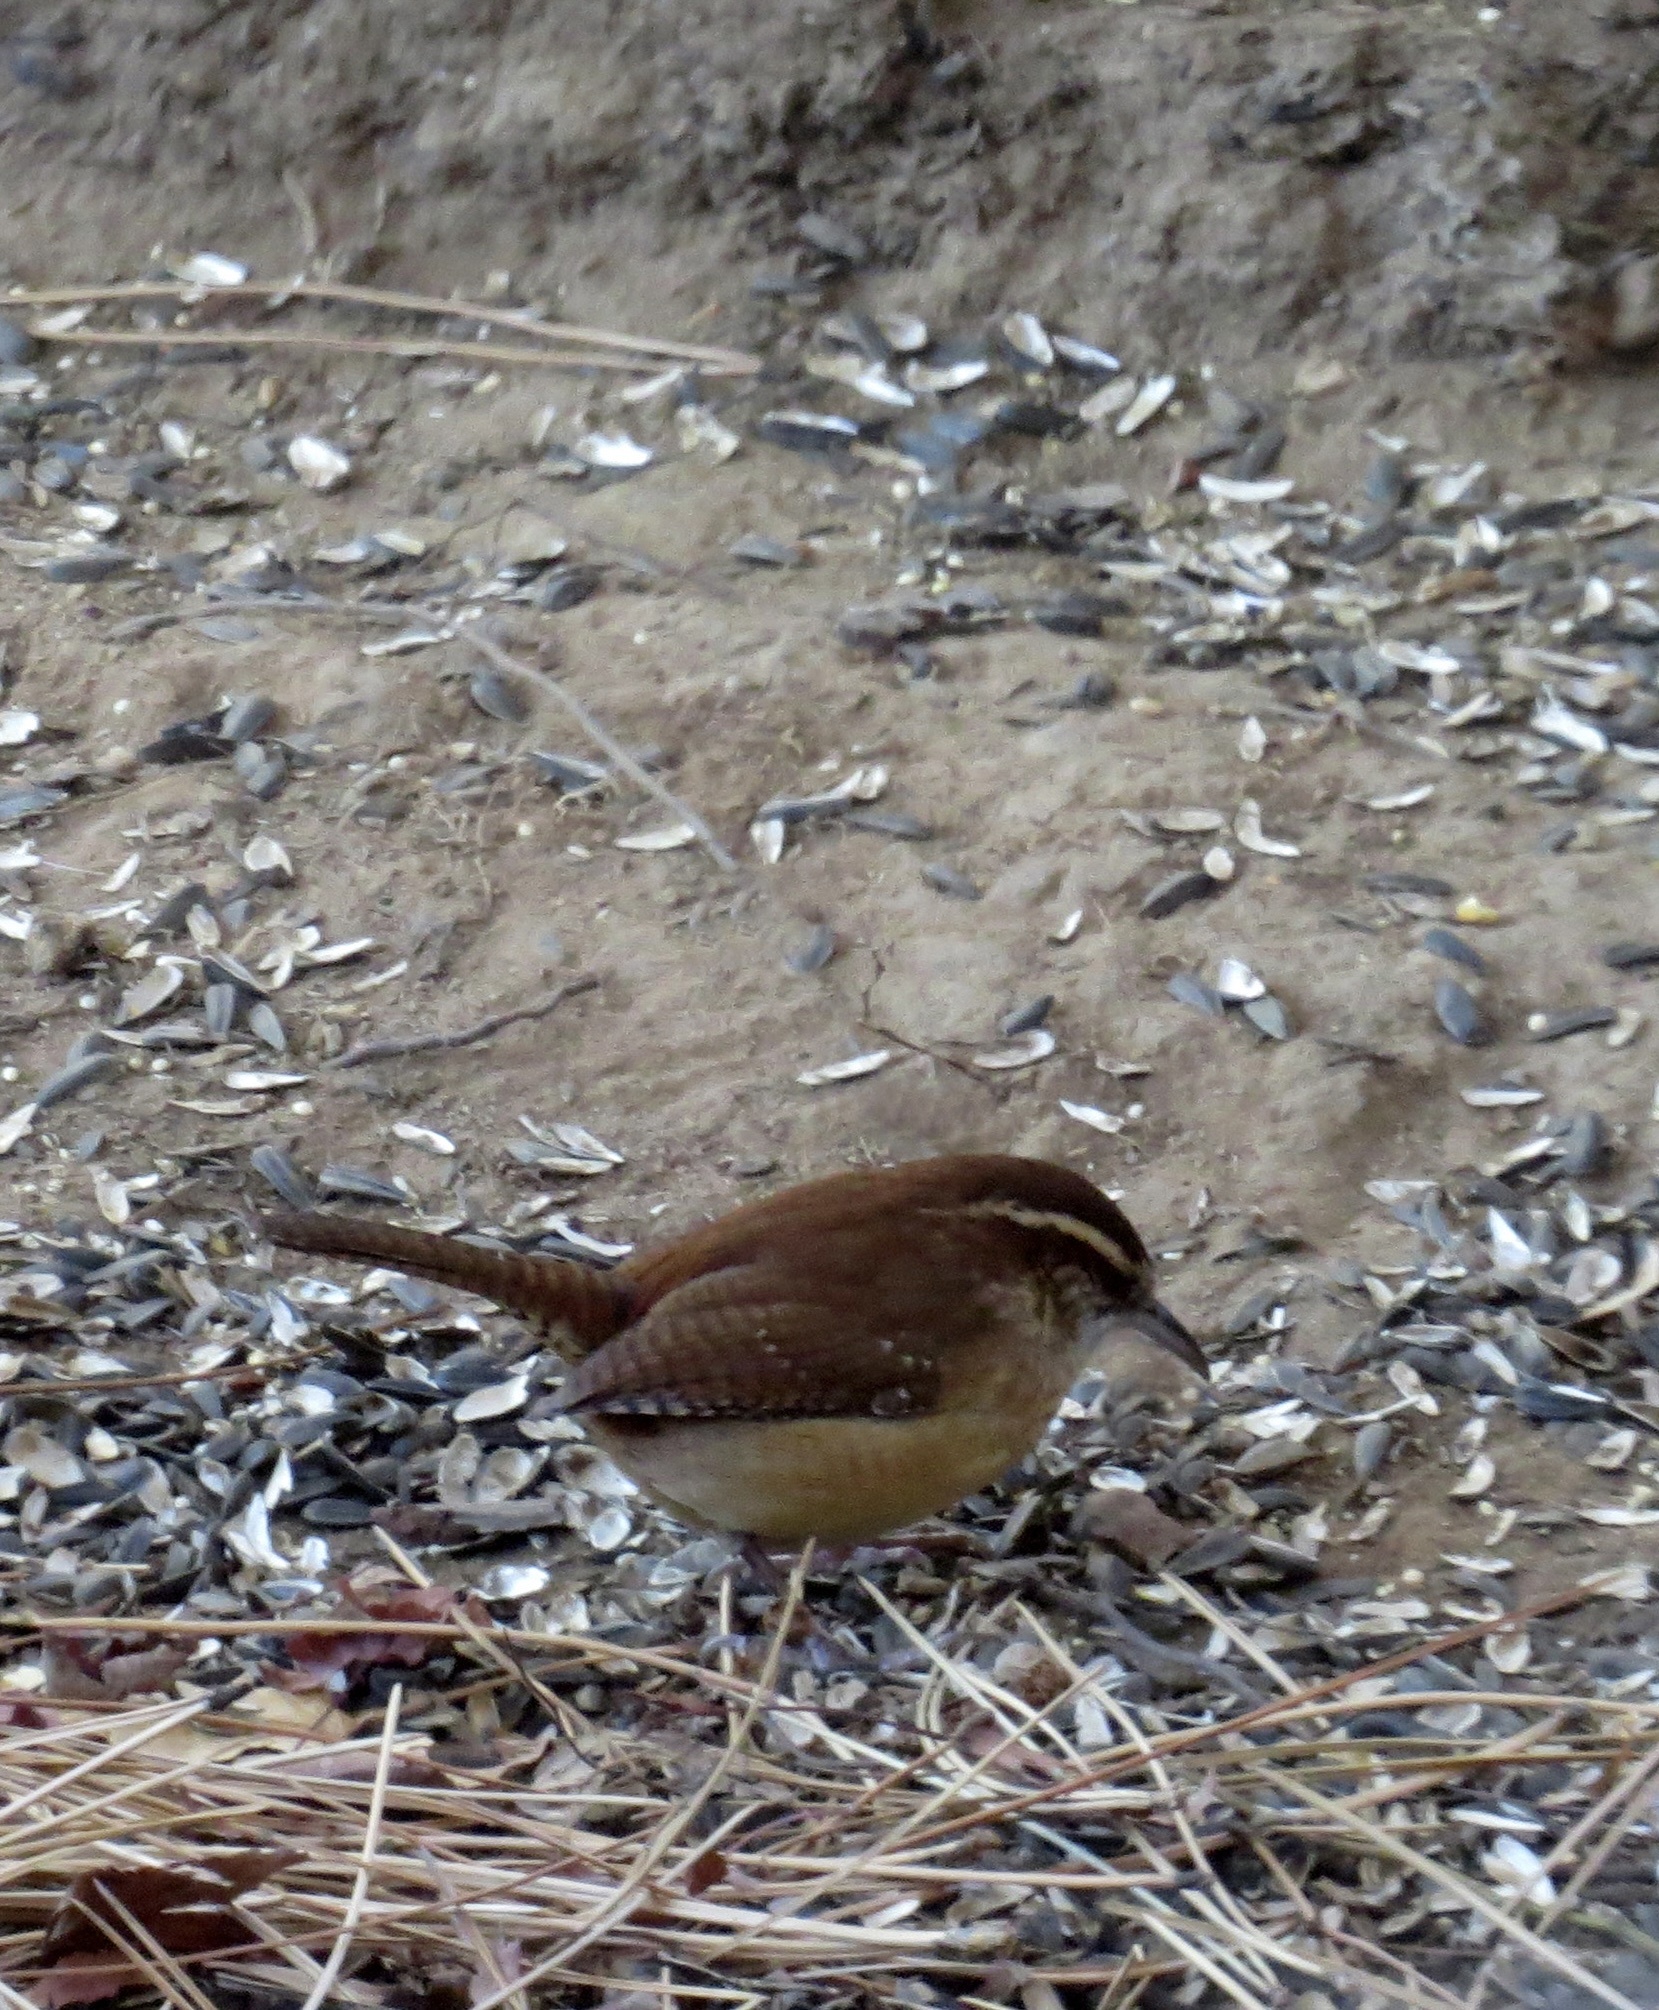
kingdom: Animalia
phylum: Chordata
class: Aves
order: Passeriformes
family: Troglodytidae
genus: Thryothorus
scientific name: Thryothorus ludovicianus
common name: Carolina wren
